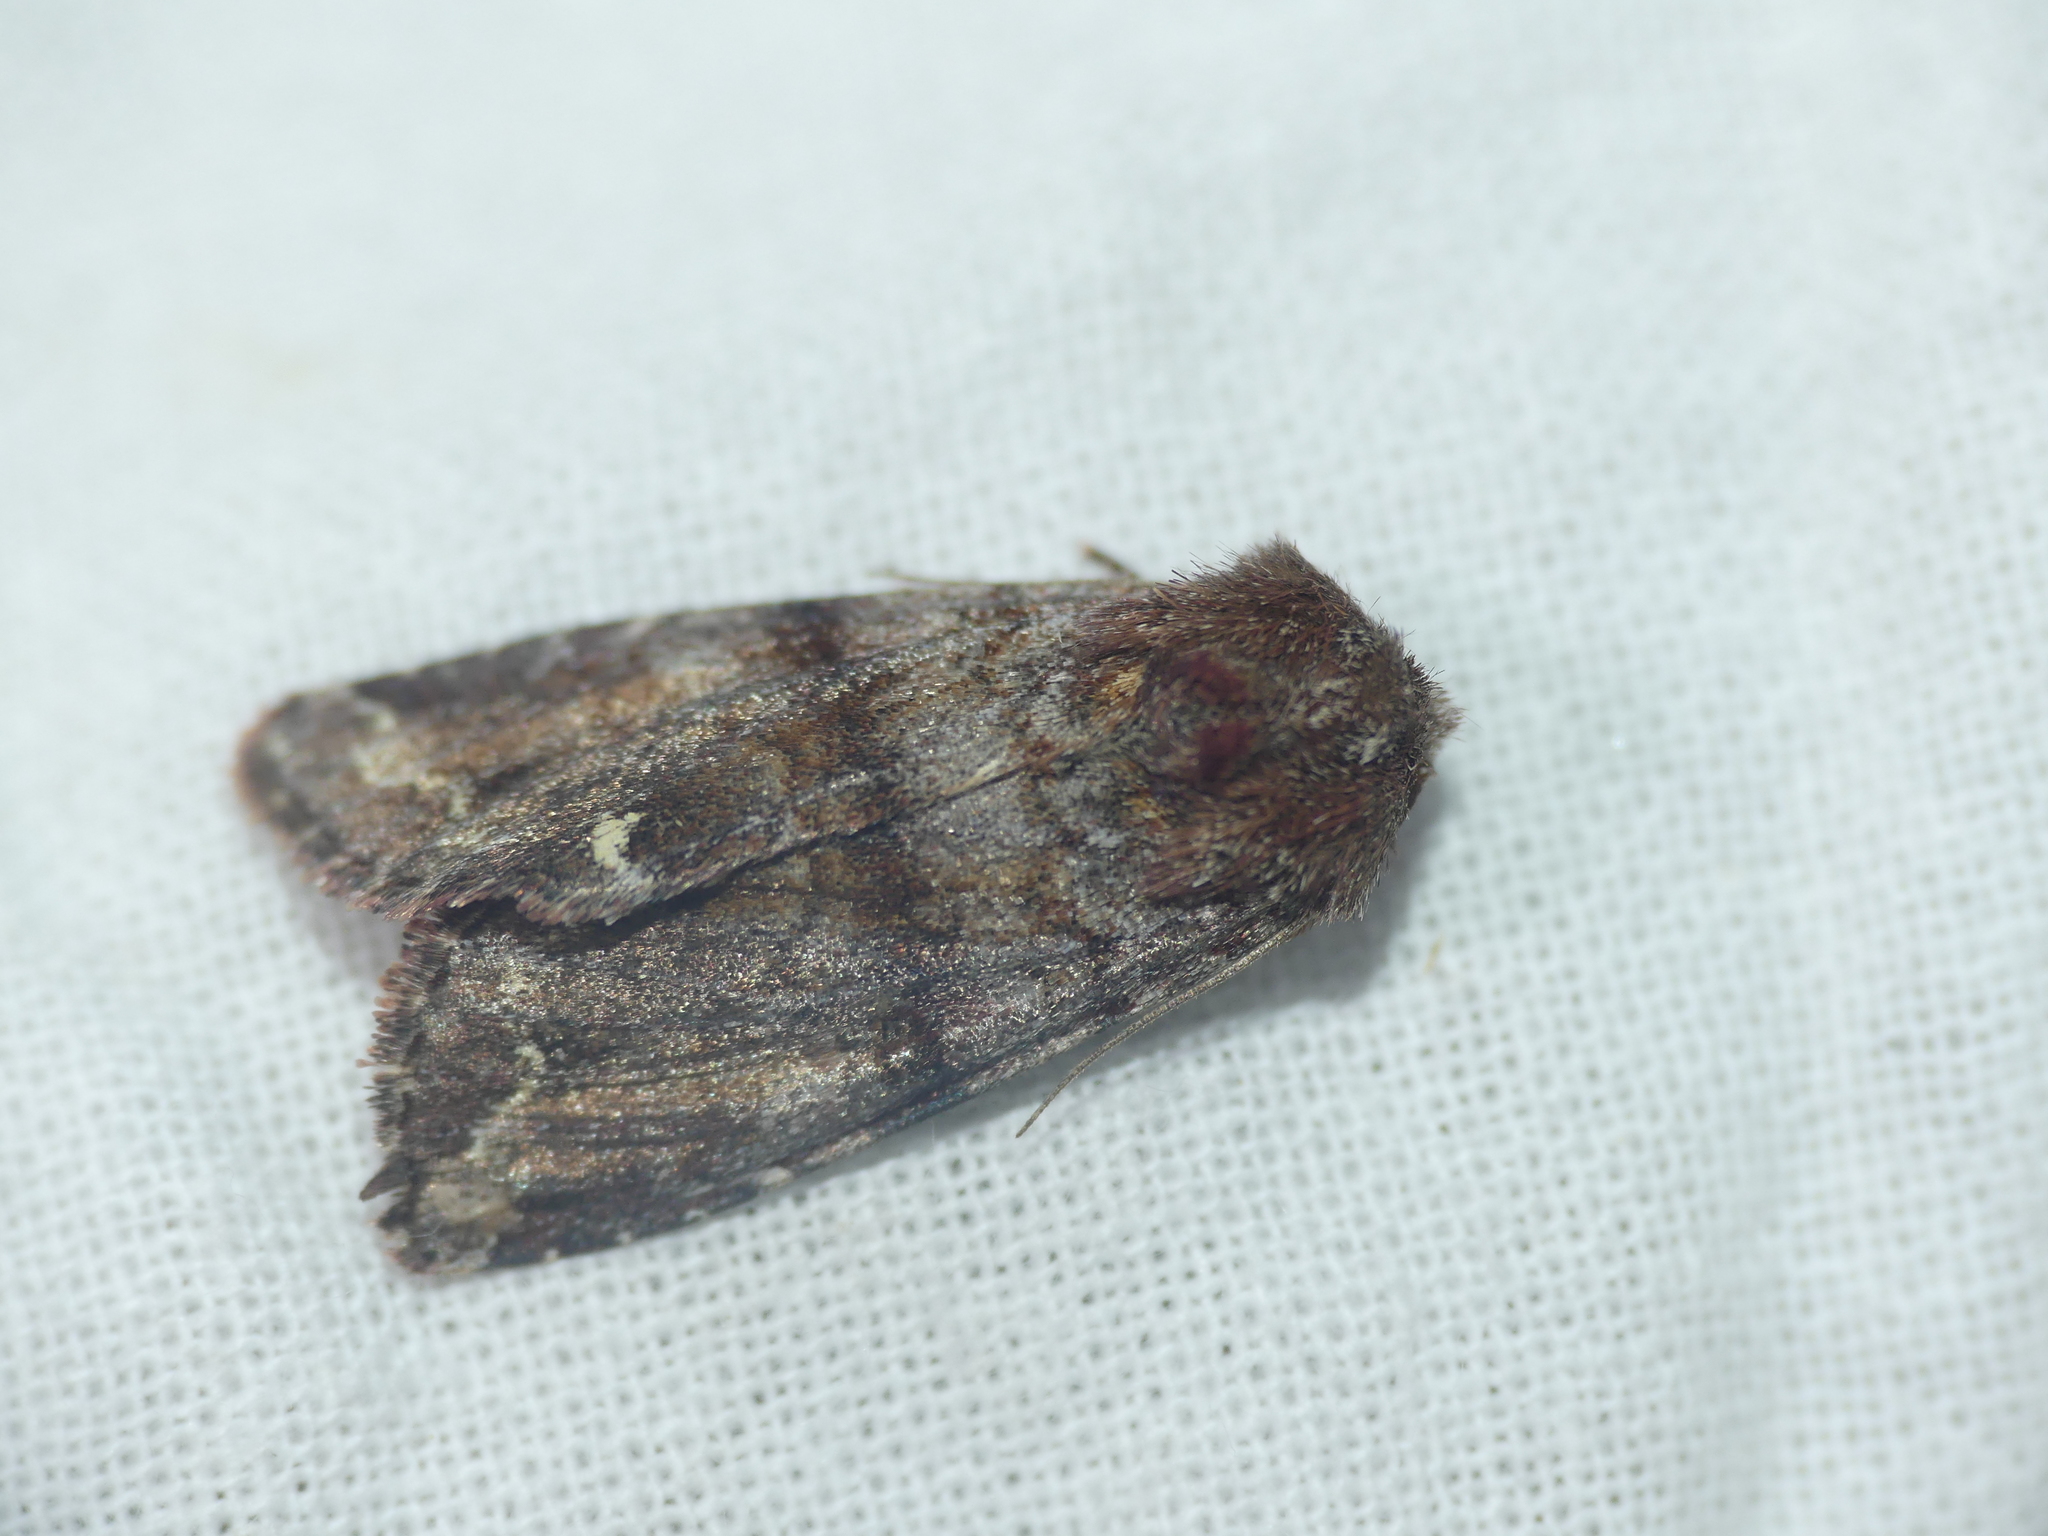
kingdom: Animalia
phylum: Arthropoda
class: Insecta
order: Lepidoptera
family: Noctuidae
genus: Ceramica
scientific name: Ceramica pisi
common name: Broom moth
